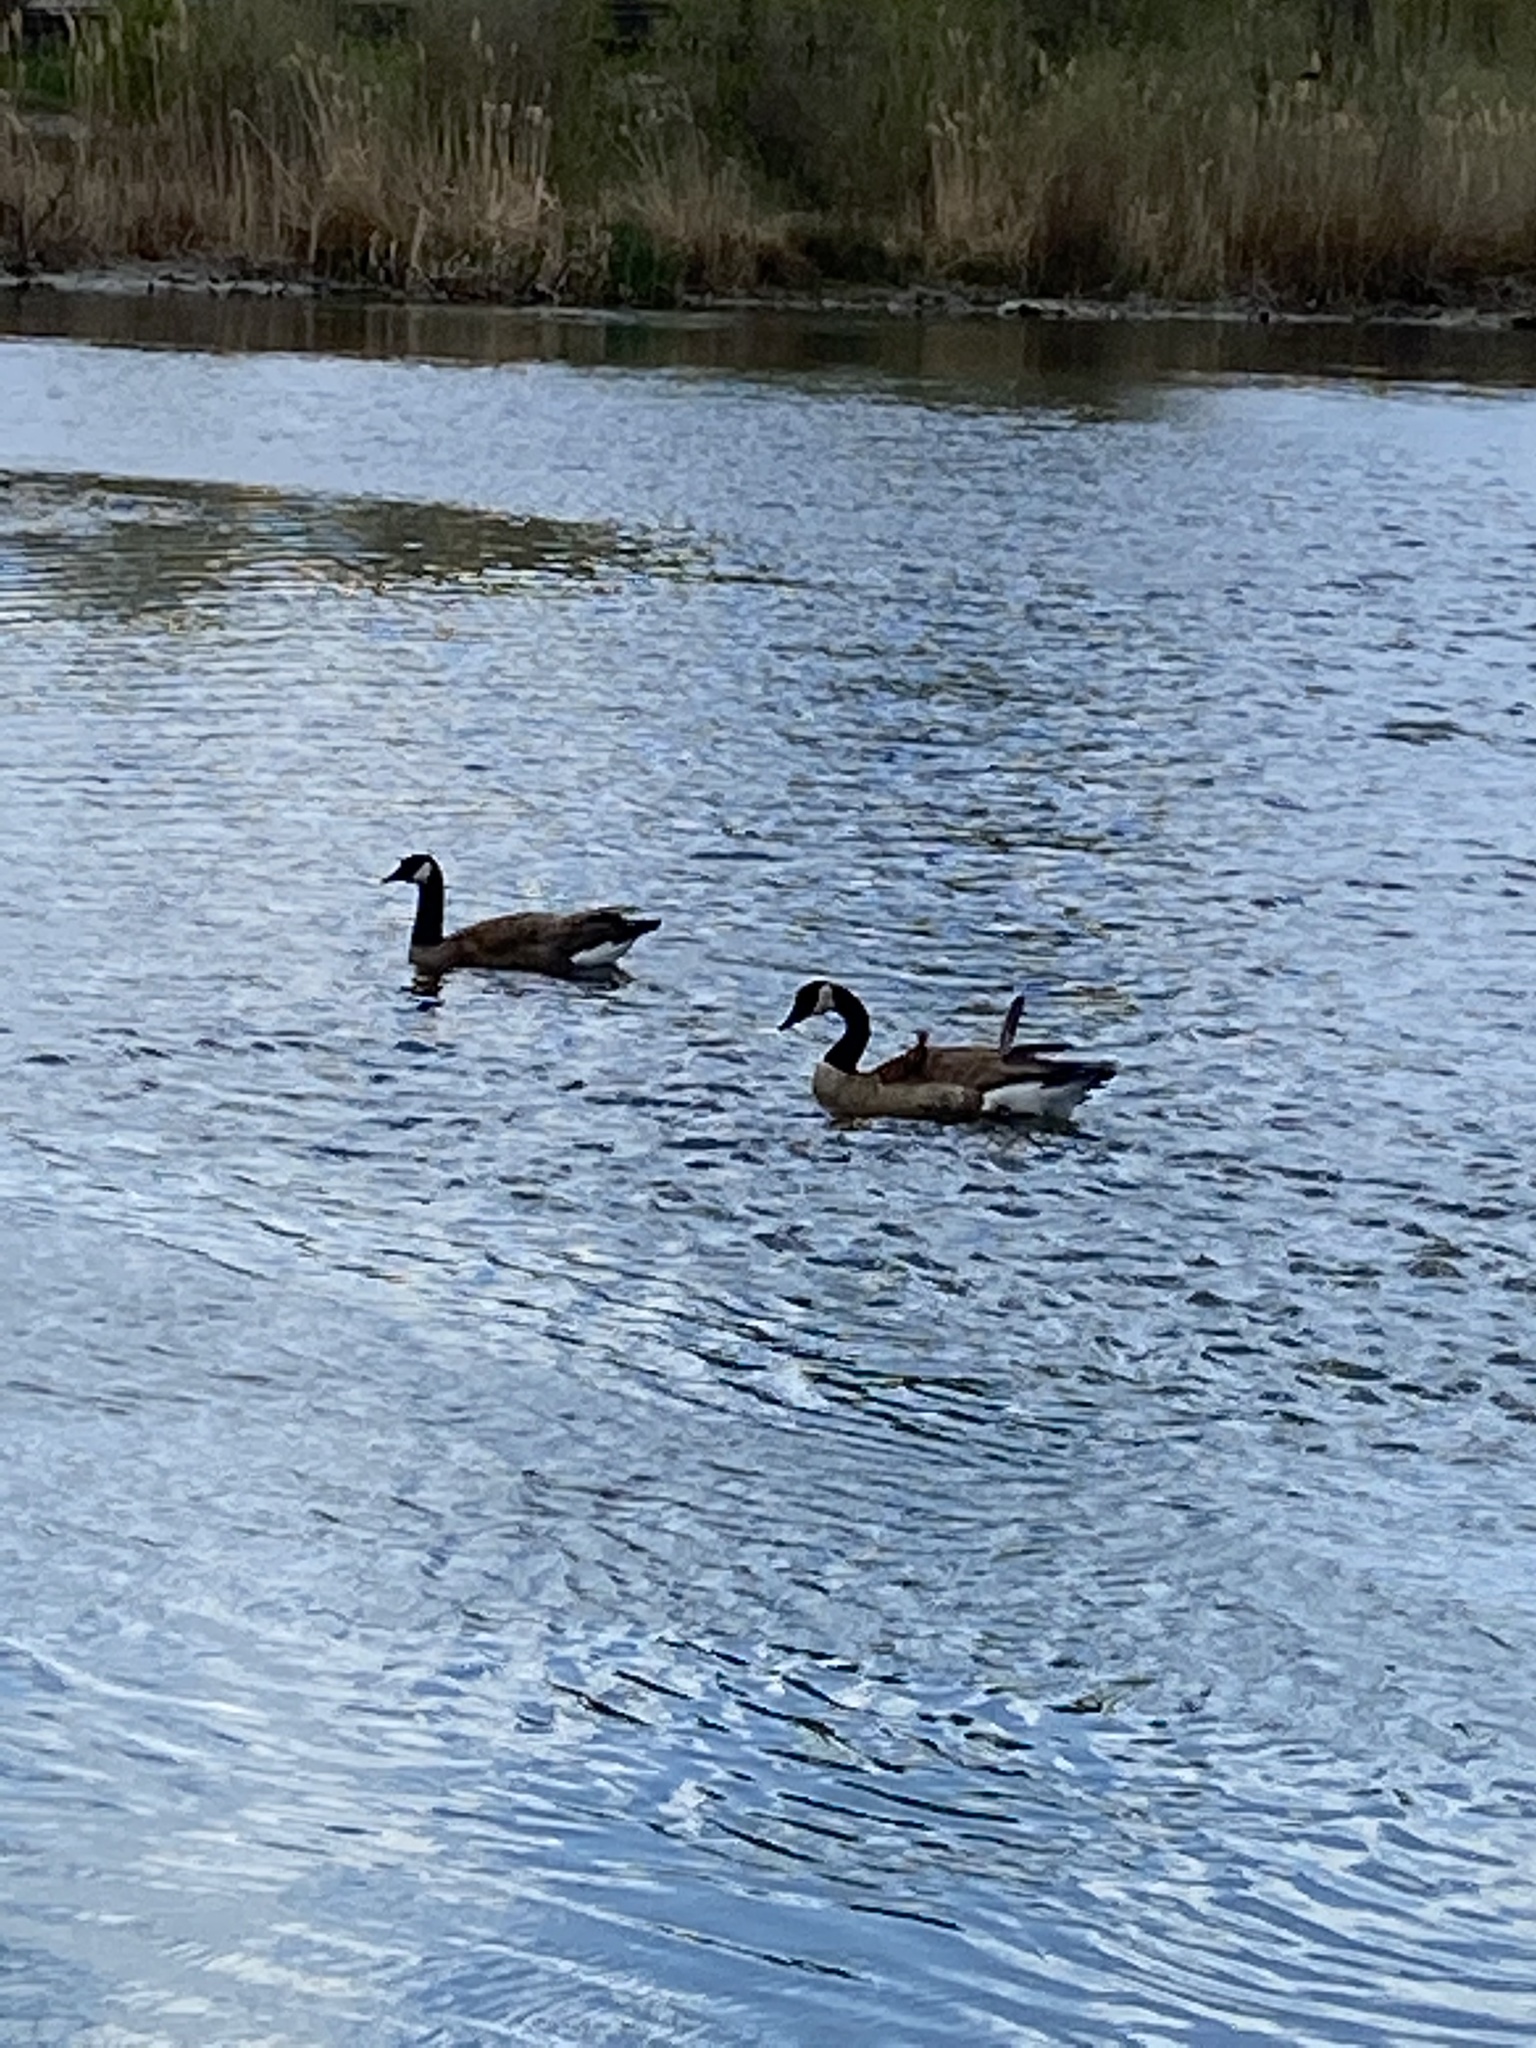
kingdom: Animalia
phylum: Chordata
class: Aves
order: Anseriformes
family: Anatidae
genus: Branta
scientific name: Branta canadensis
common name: Canada goose
